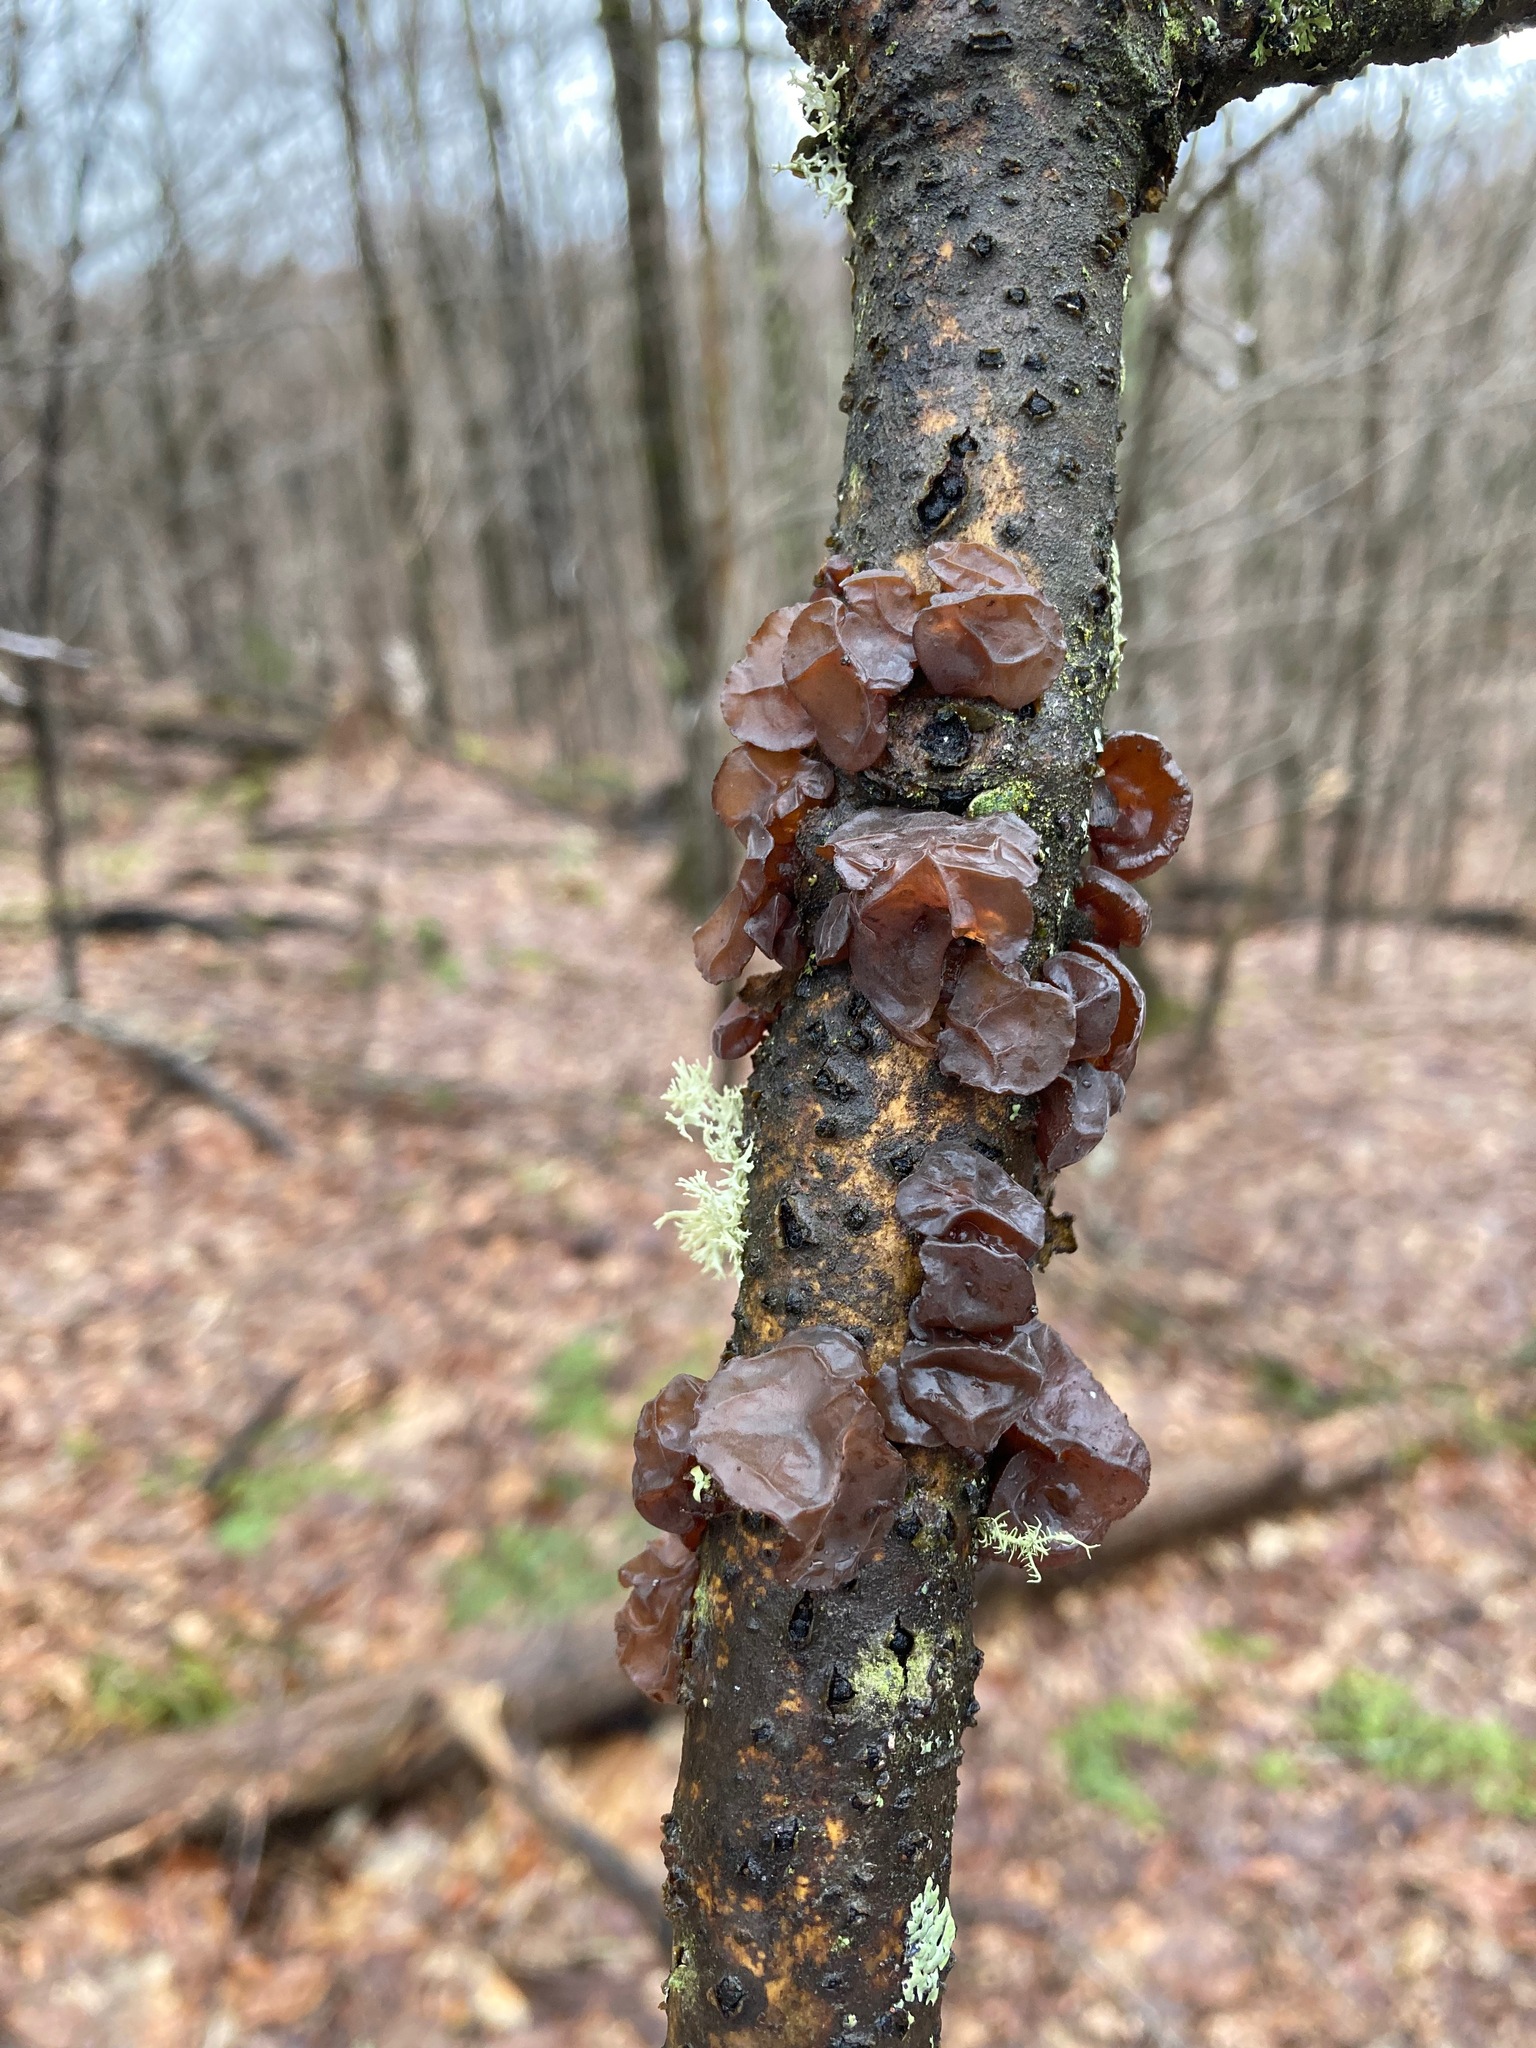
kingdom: Fungi
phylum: Basidiomycota
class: Agaricomycetes
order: Auriculariales
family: Auriculariaceae
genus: Exidia
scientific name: Exidia
